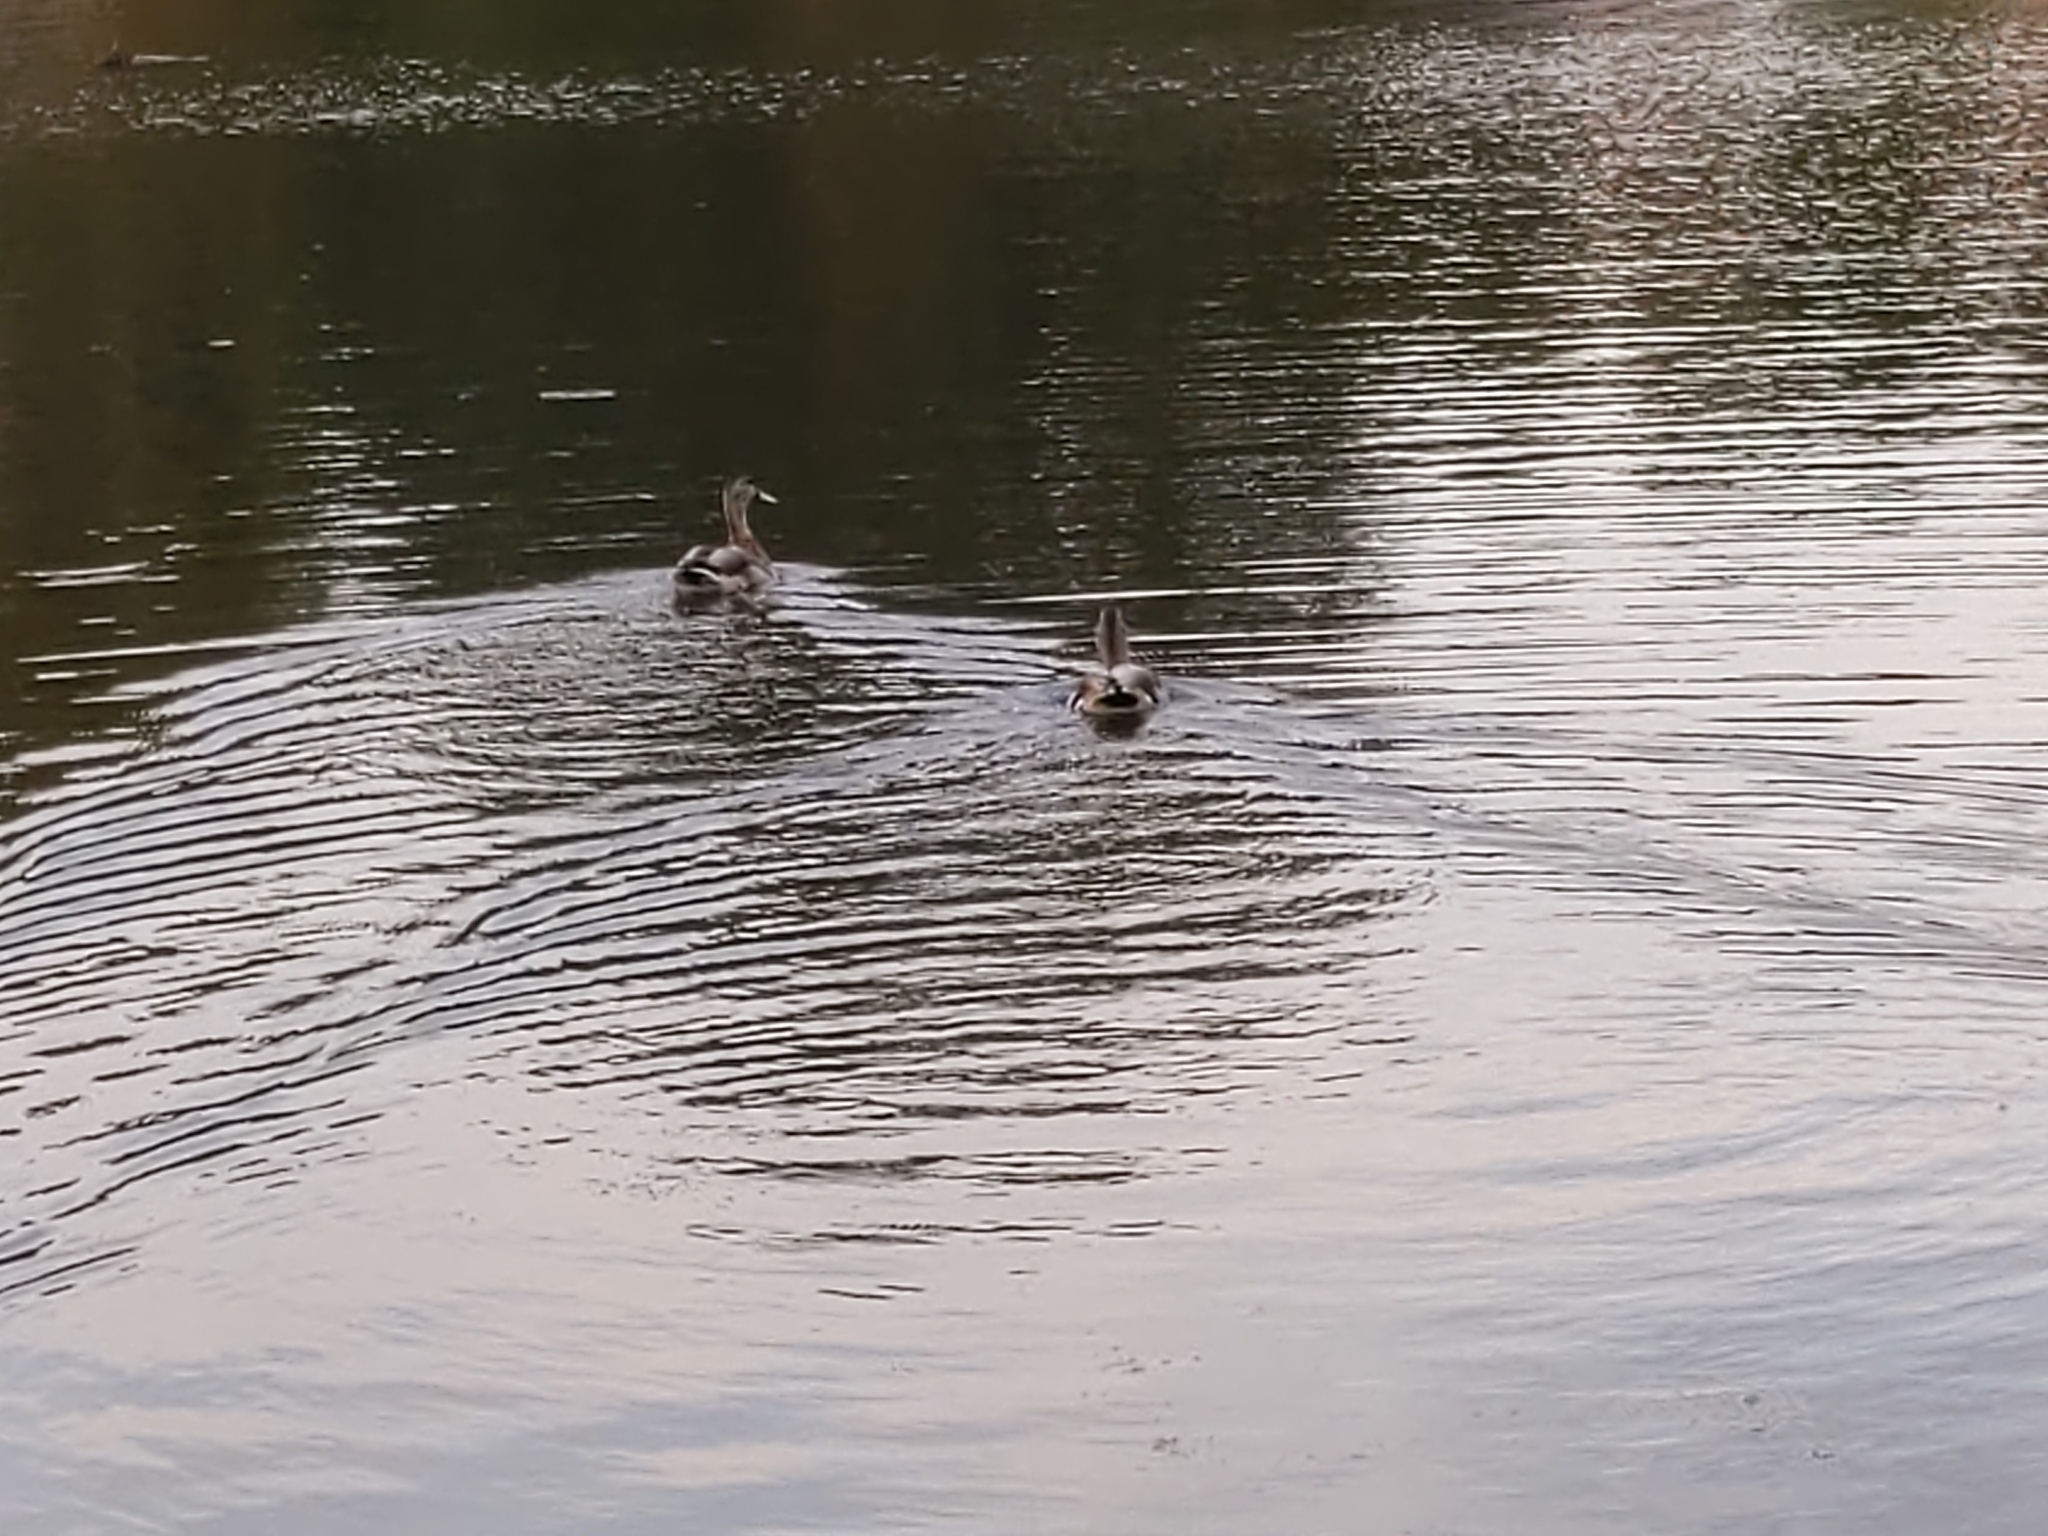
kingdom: Animalia
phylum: Chordata
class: Aves
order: Anseriformes
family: Anatidae
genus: Anas
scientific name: Anas platyrhynchos
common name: Mallard
